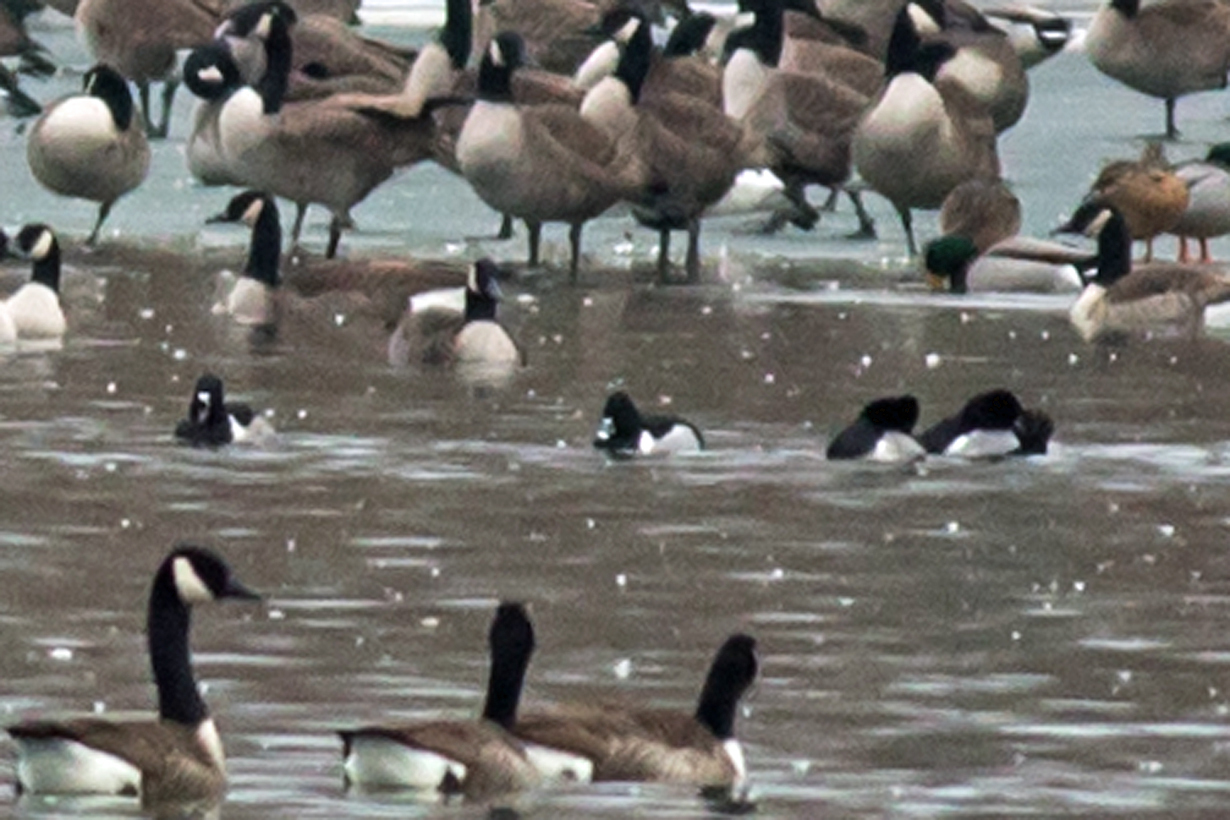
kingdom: Animalia
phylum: Chordata
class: Aves
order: Anseriformes
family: Anatidae
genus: Aythya
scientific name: Aythya collaris
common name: Ring-necked duck
